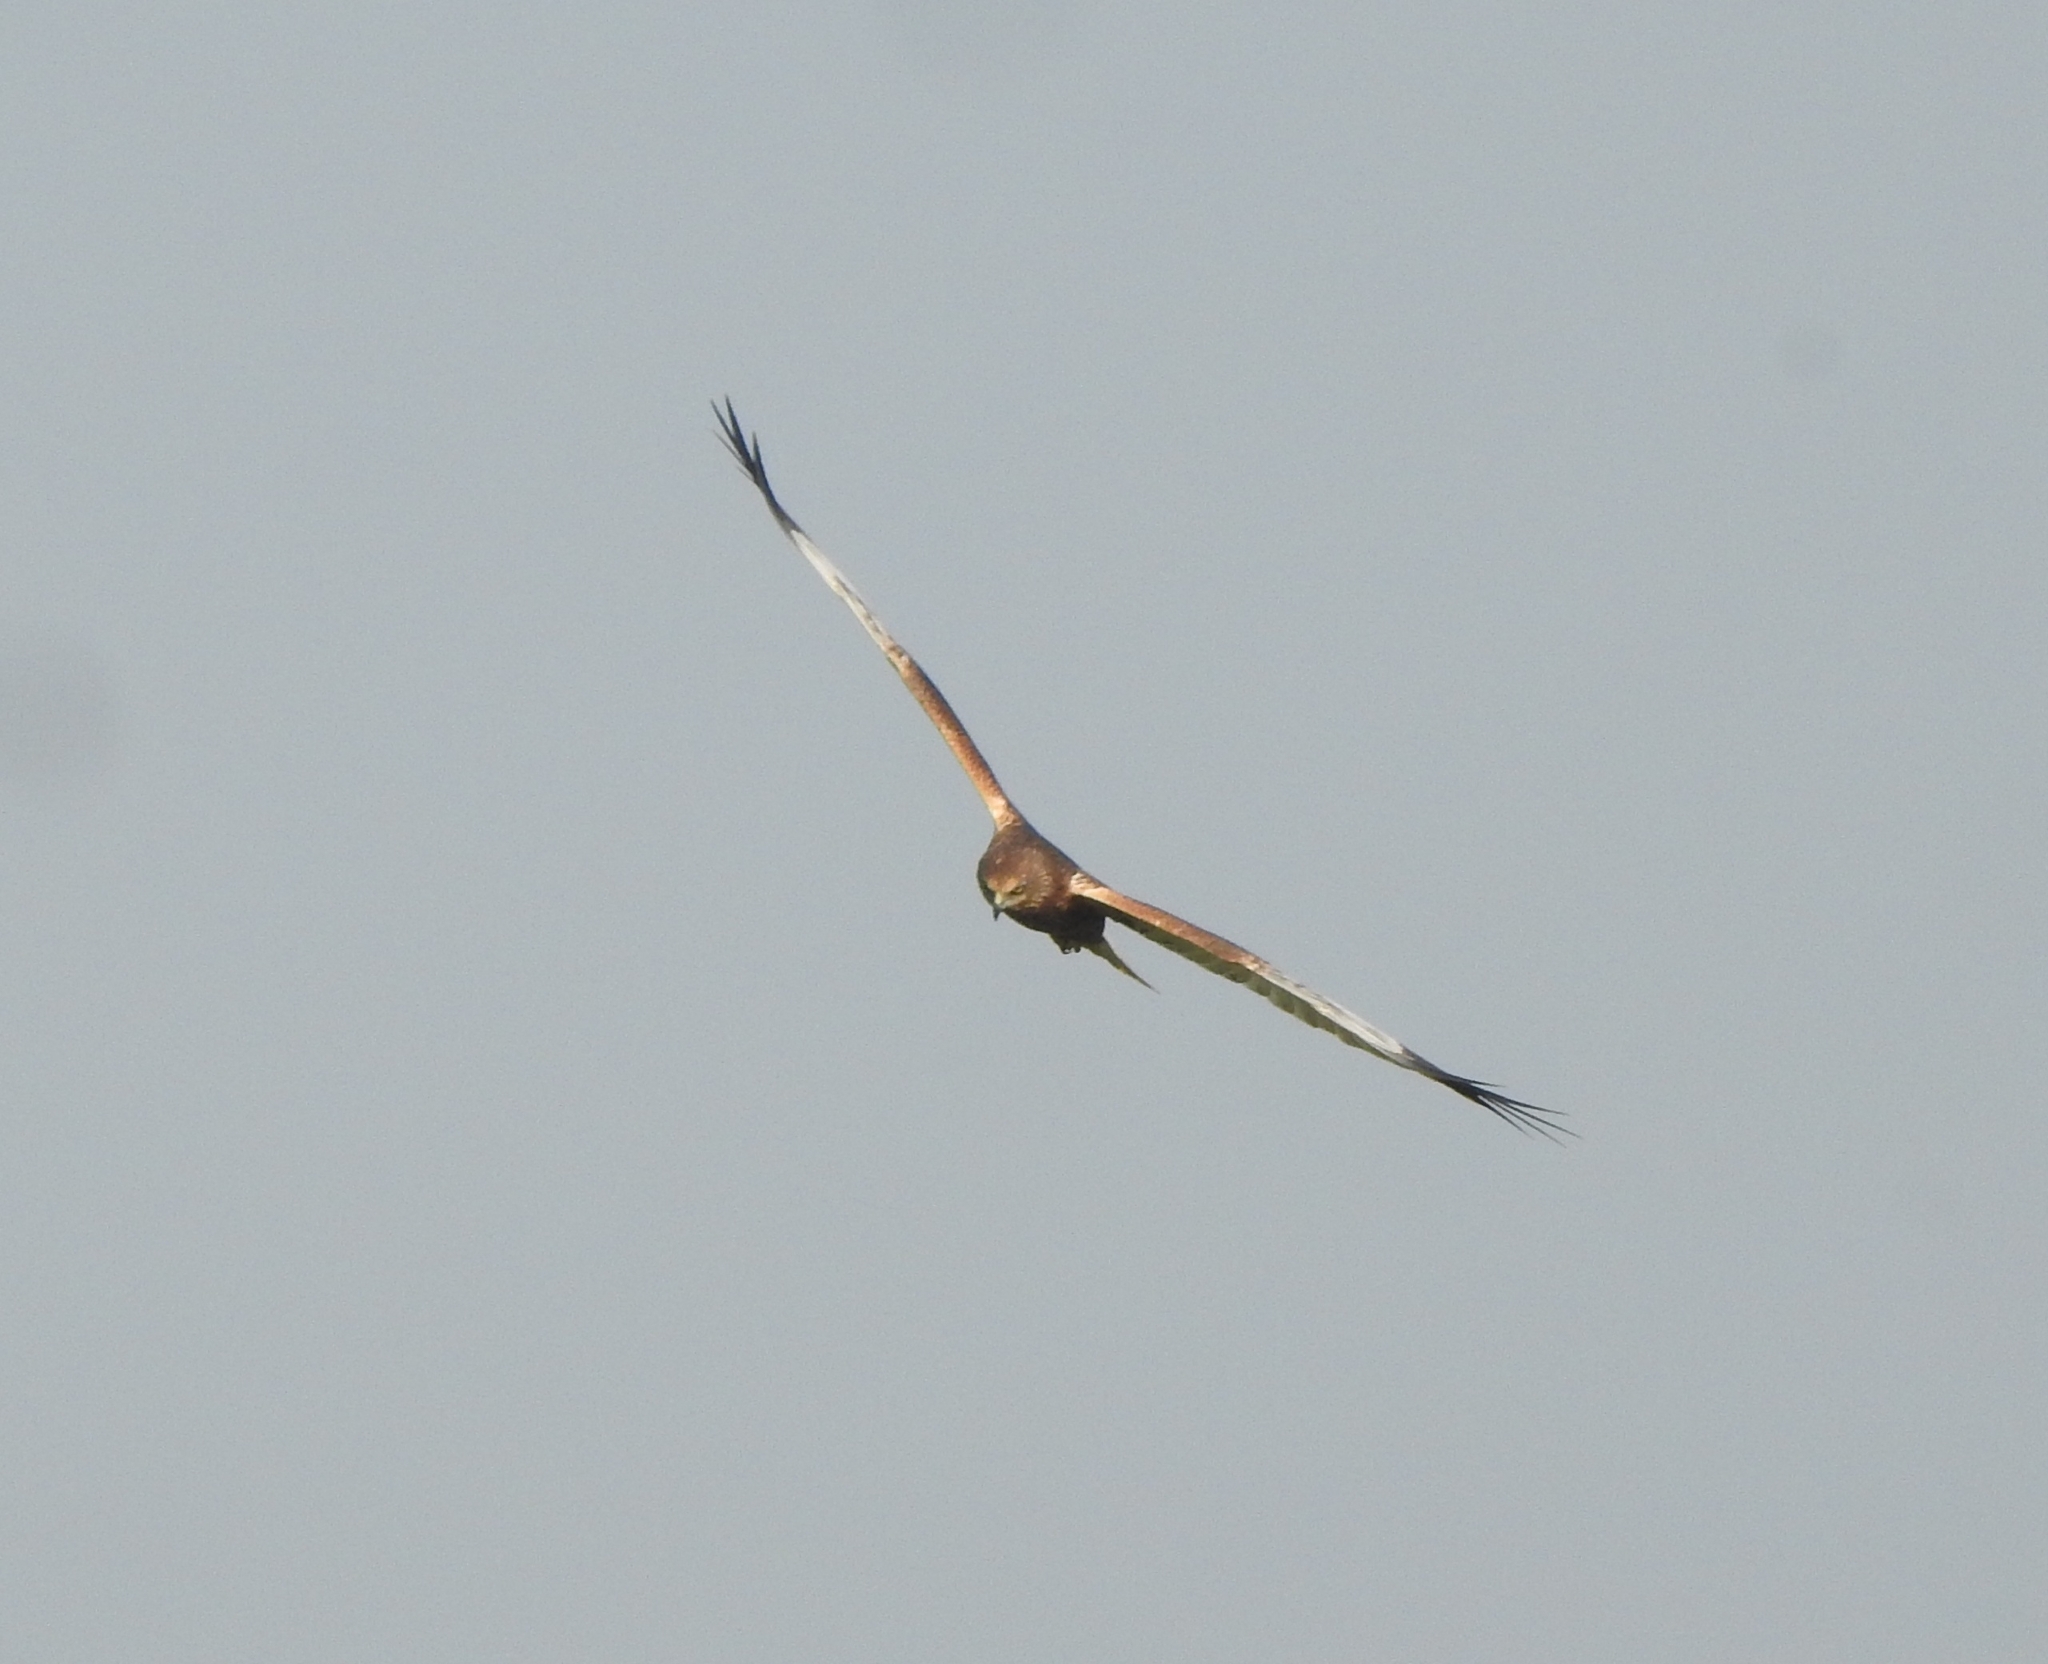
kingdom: Animalia
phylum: Chordata
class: Aves
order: Accipitriformes
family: Accipitridae
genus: Circus
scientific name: Circus aeruginosus
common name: Western marsh harrier
